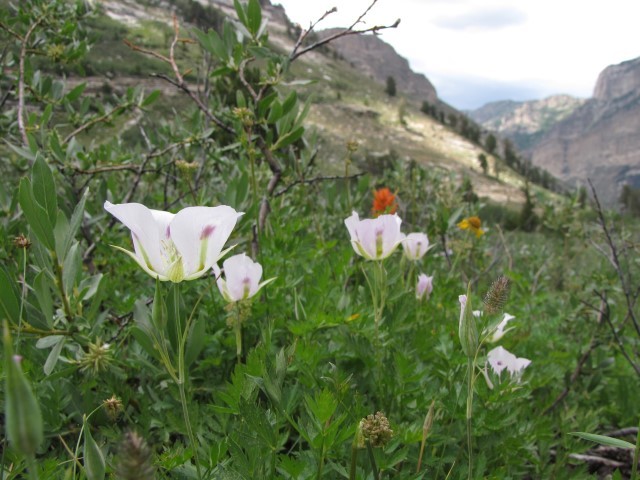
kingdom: Plantae
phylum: Tracheophyta
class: Liliopsida
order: Liliales
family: Liliaceae
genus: Calochortus
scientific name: Calochortus eurycarpus
